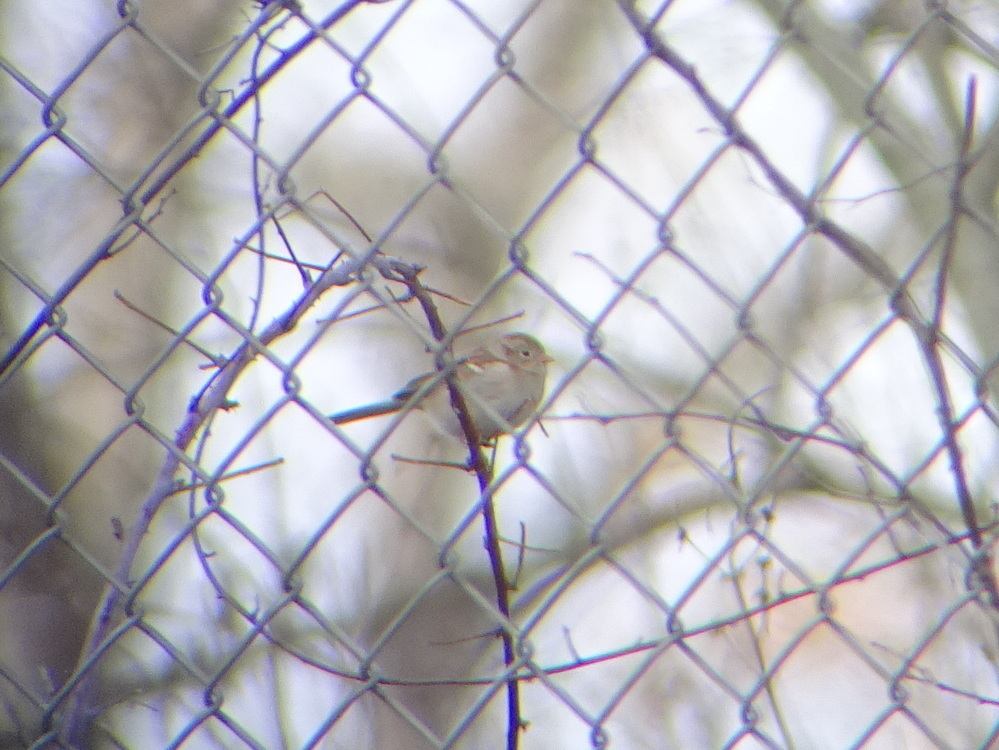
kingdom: Animalia
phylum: Chordata
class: Aves
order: Passeriformes
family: Passerellidae
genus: Spizella
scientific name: Spizella pusilla
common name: Field sparrow
